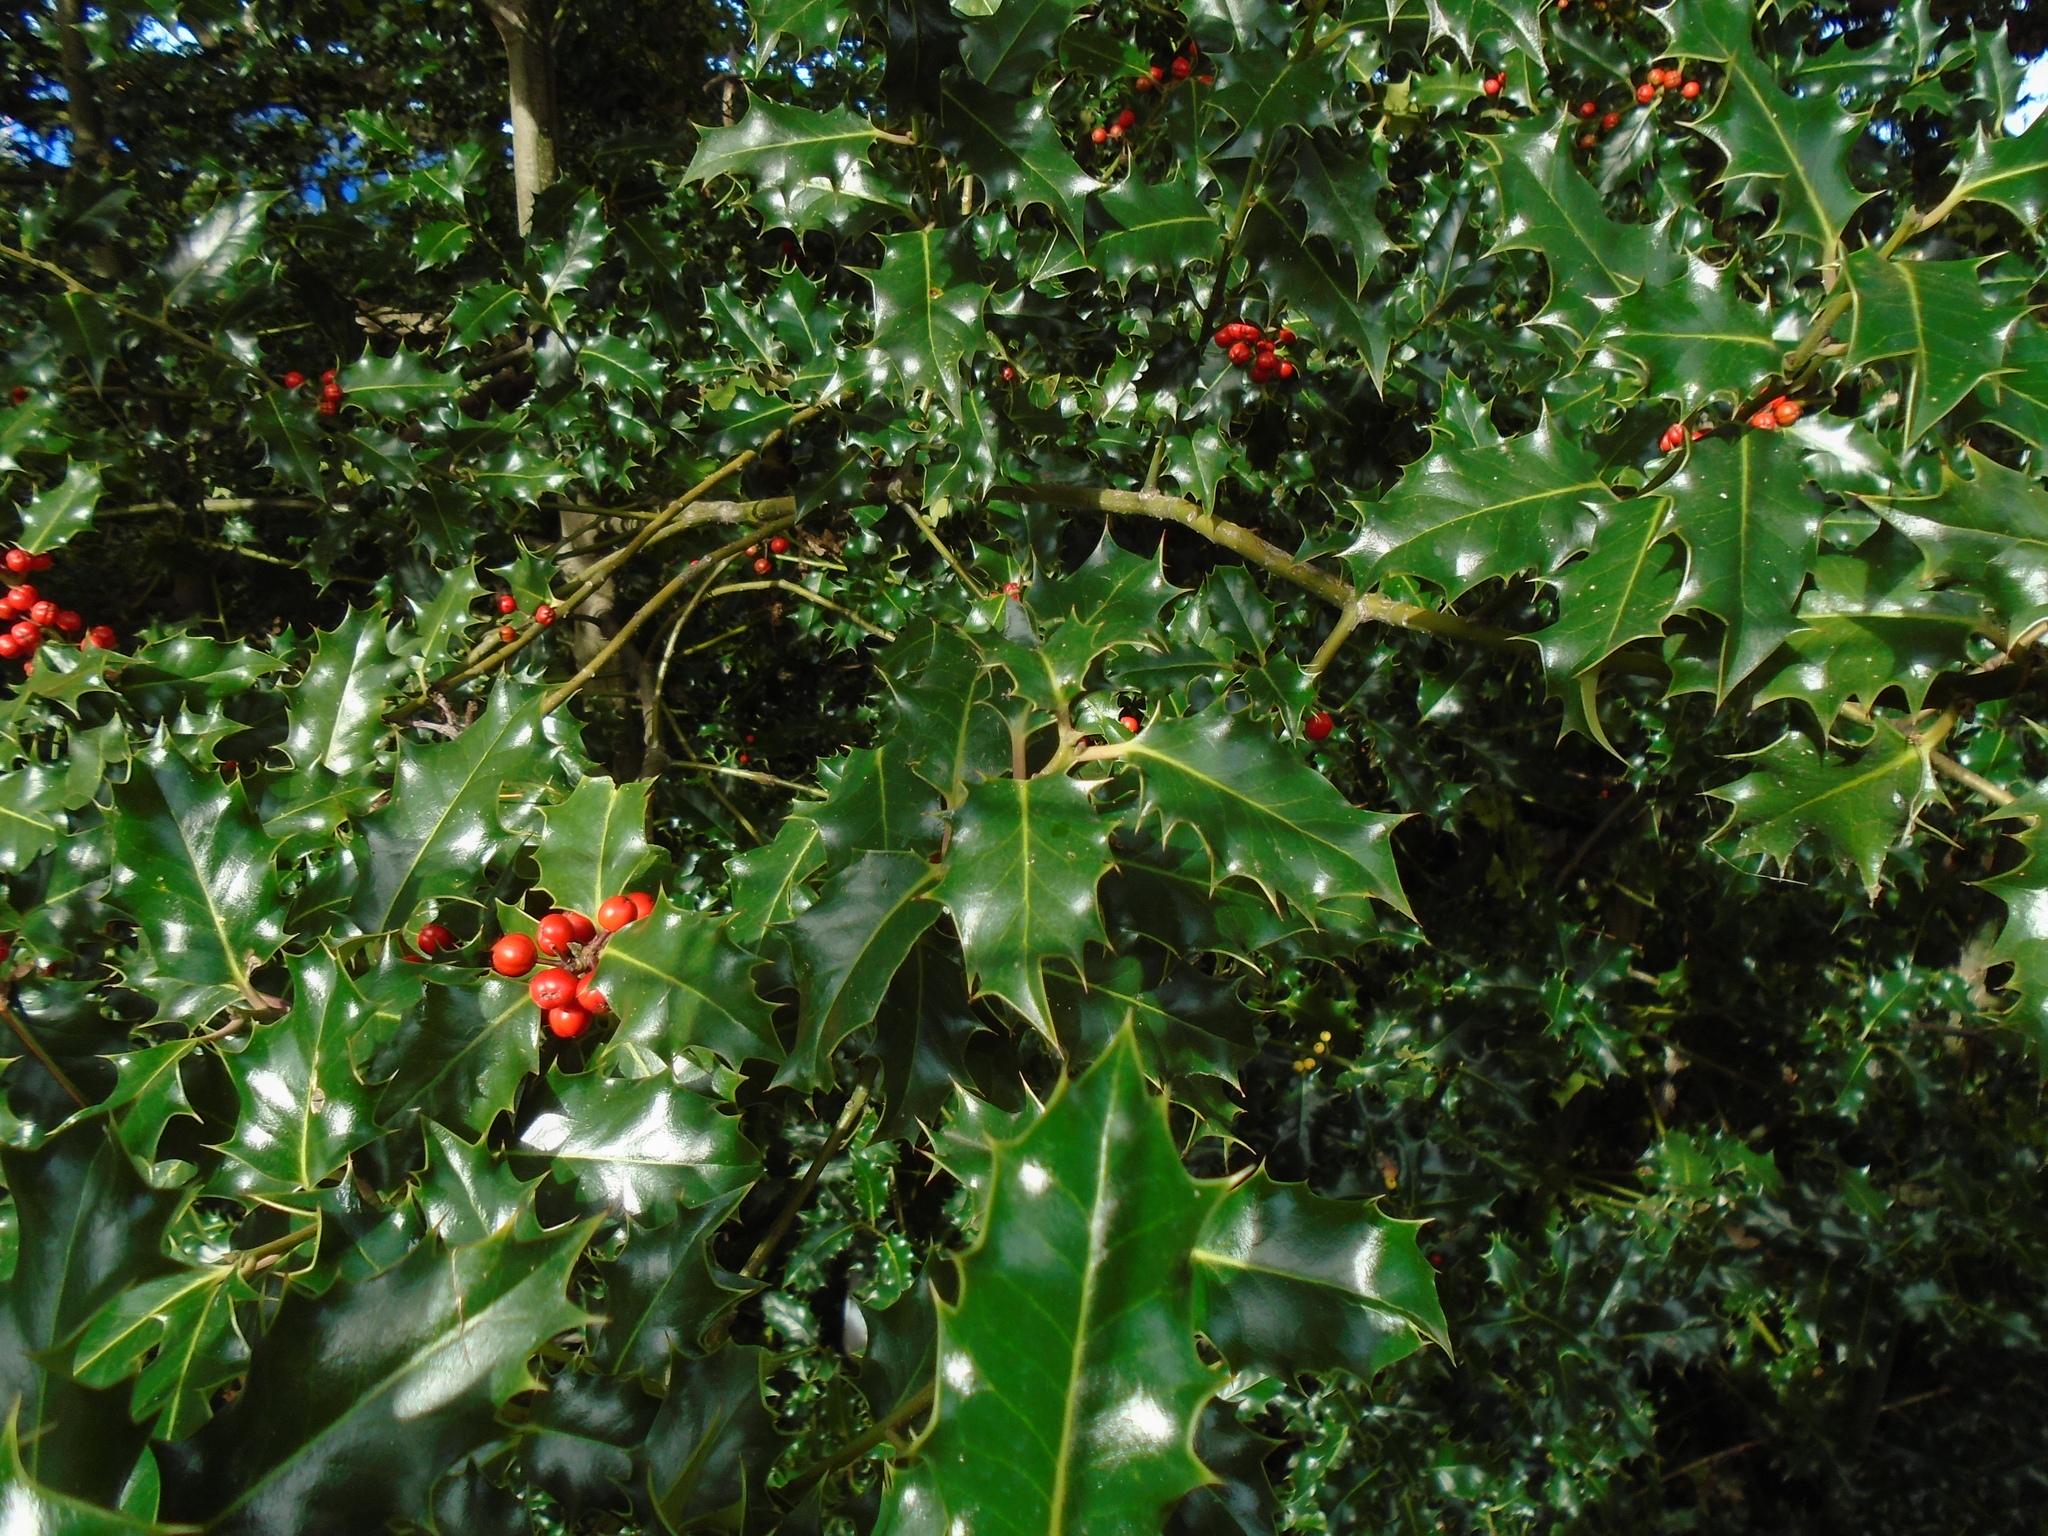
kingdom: Plantae
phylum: Tracheophyta
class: Magnoliopsida
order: Aquifoliales
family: Aquifoliaceae
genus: Ilex
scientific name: Ilex aquifolium
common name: English holly
